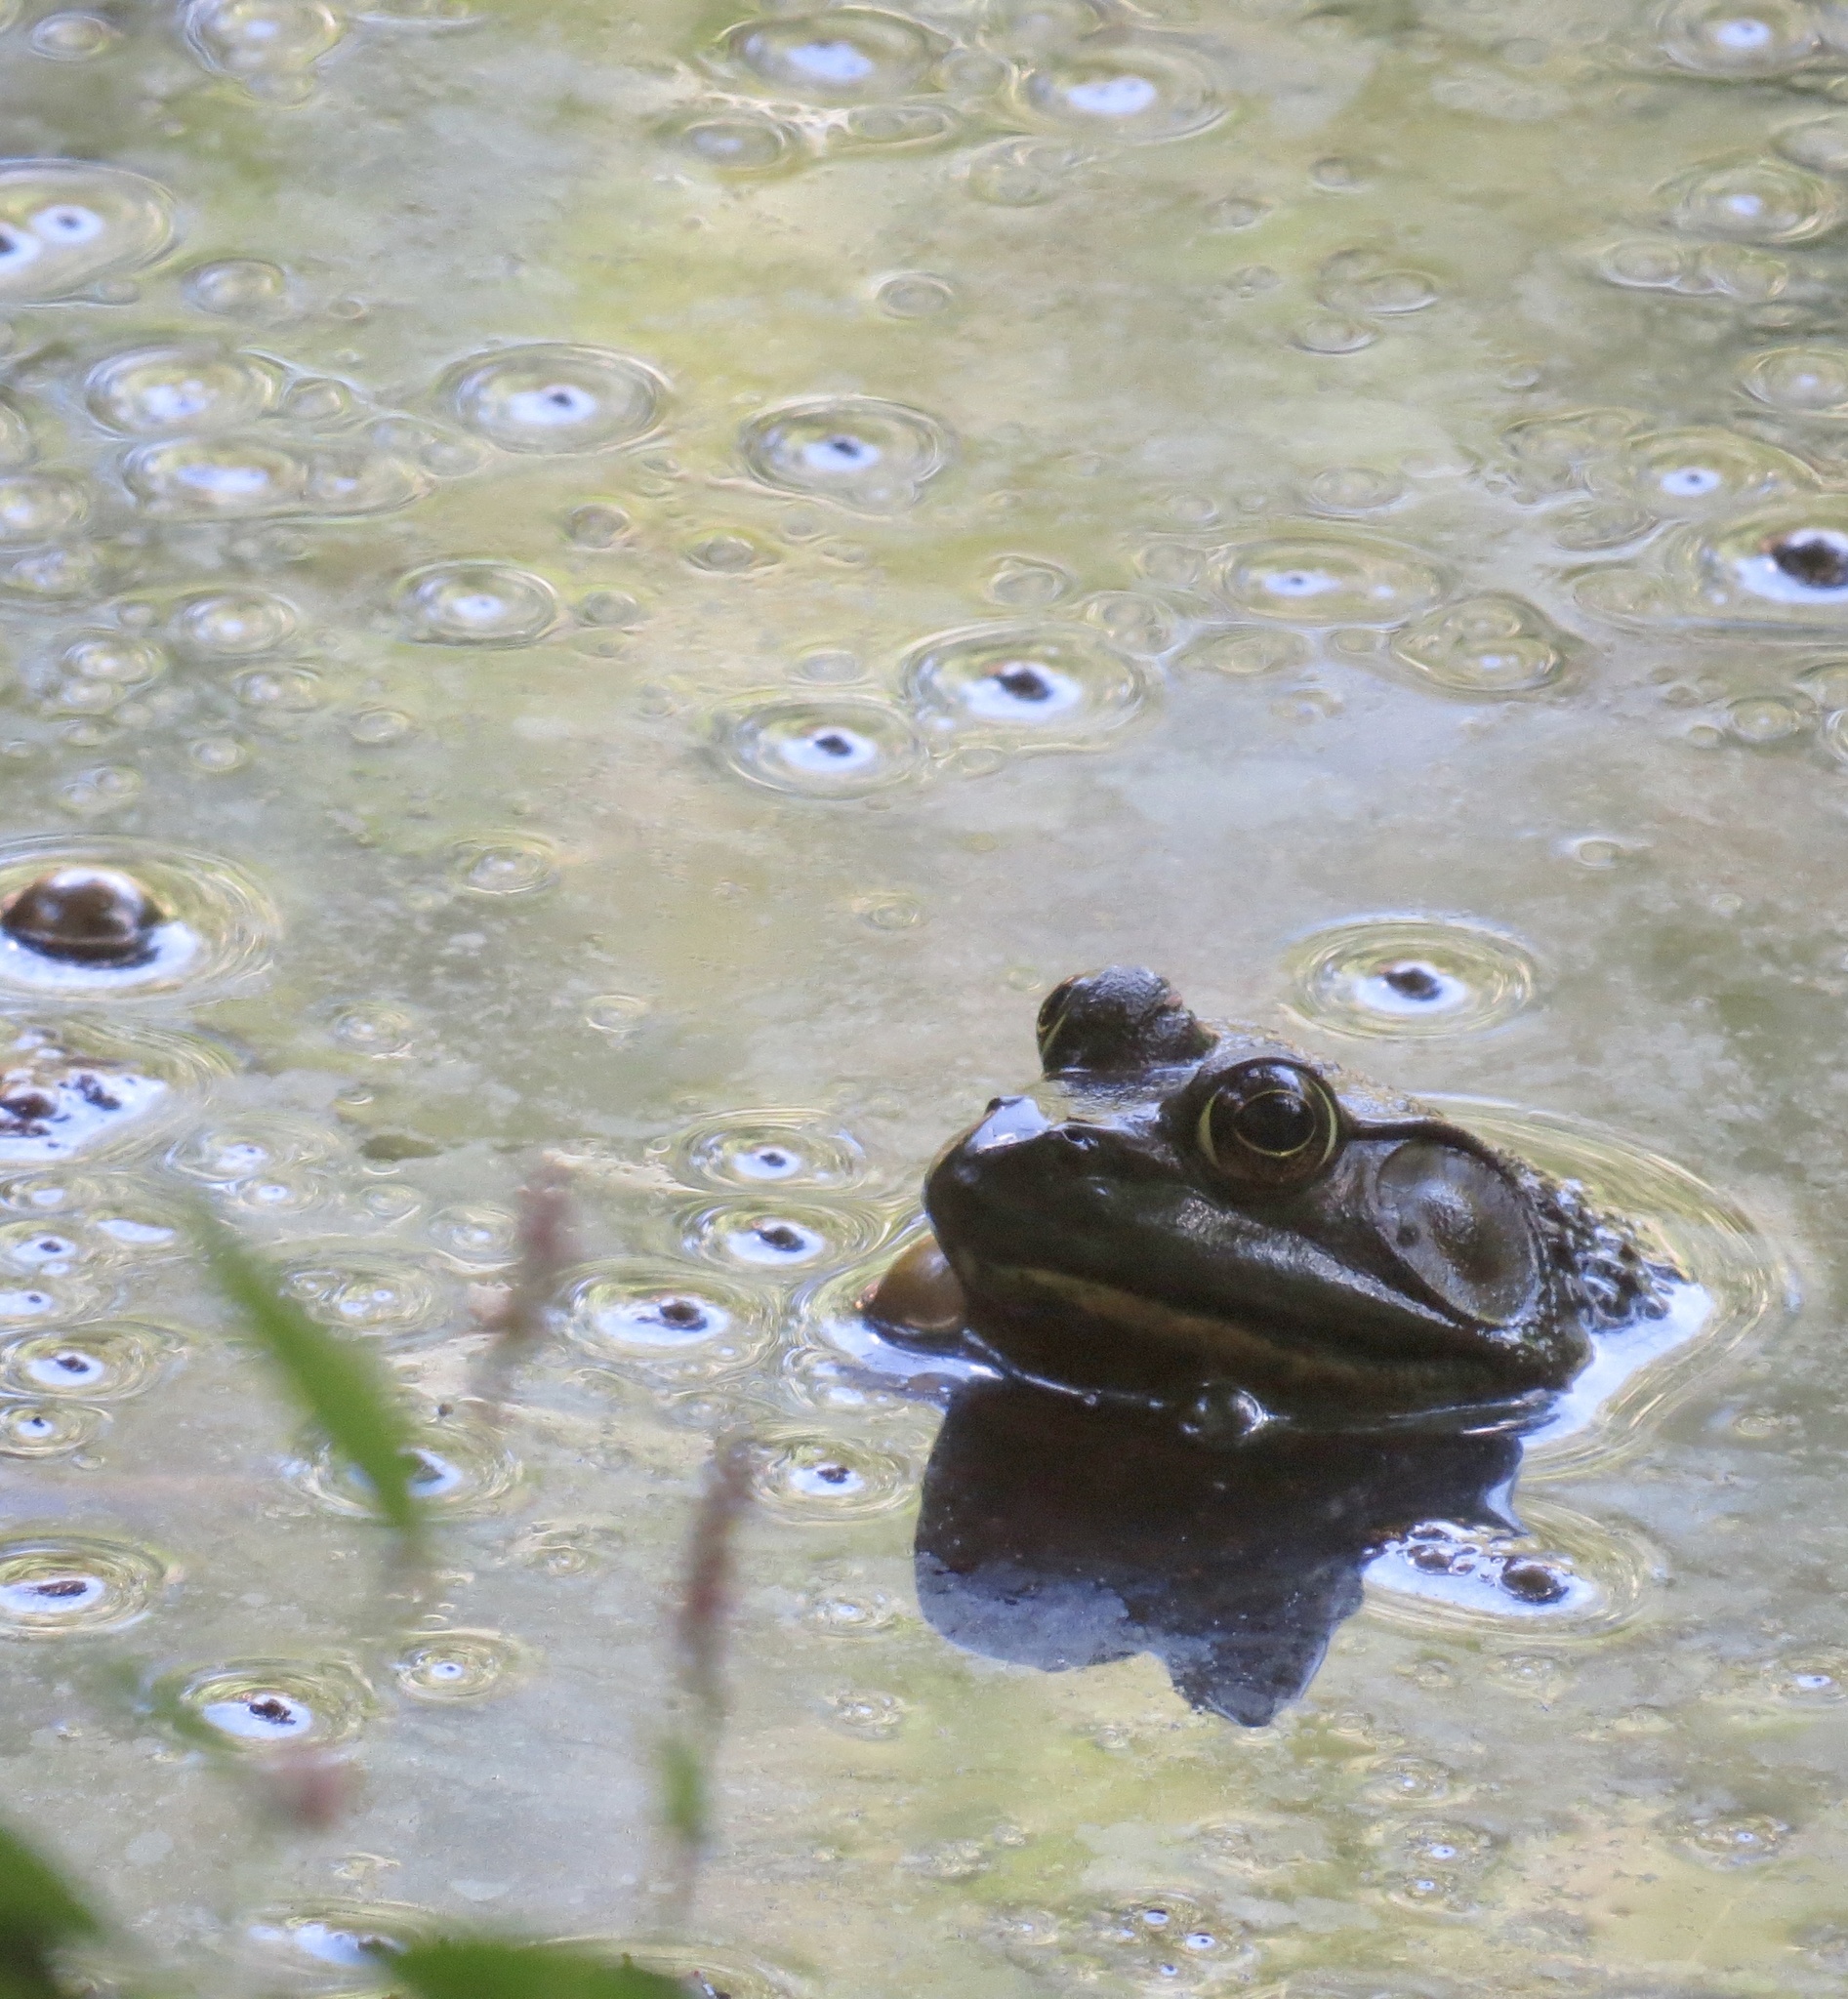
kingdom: Animalia
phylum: Chordata
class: Amphibia
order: Anura
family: Ranidae
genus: Lithobates
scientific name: Lithobates catesbeianus
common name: American bullfrog
